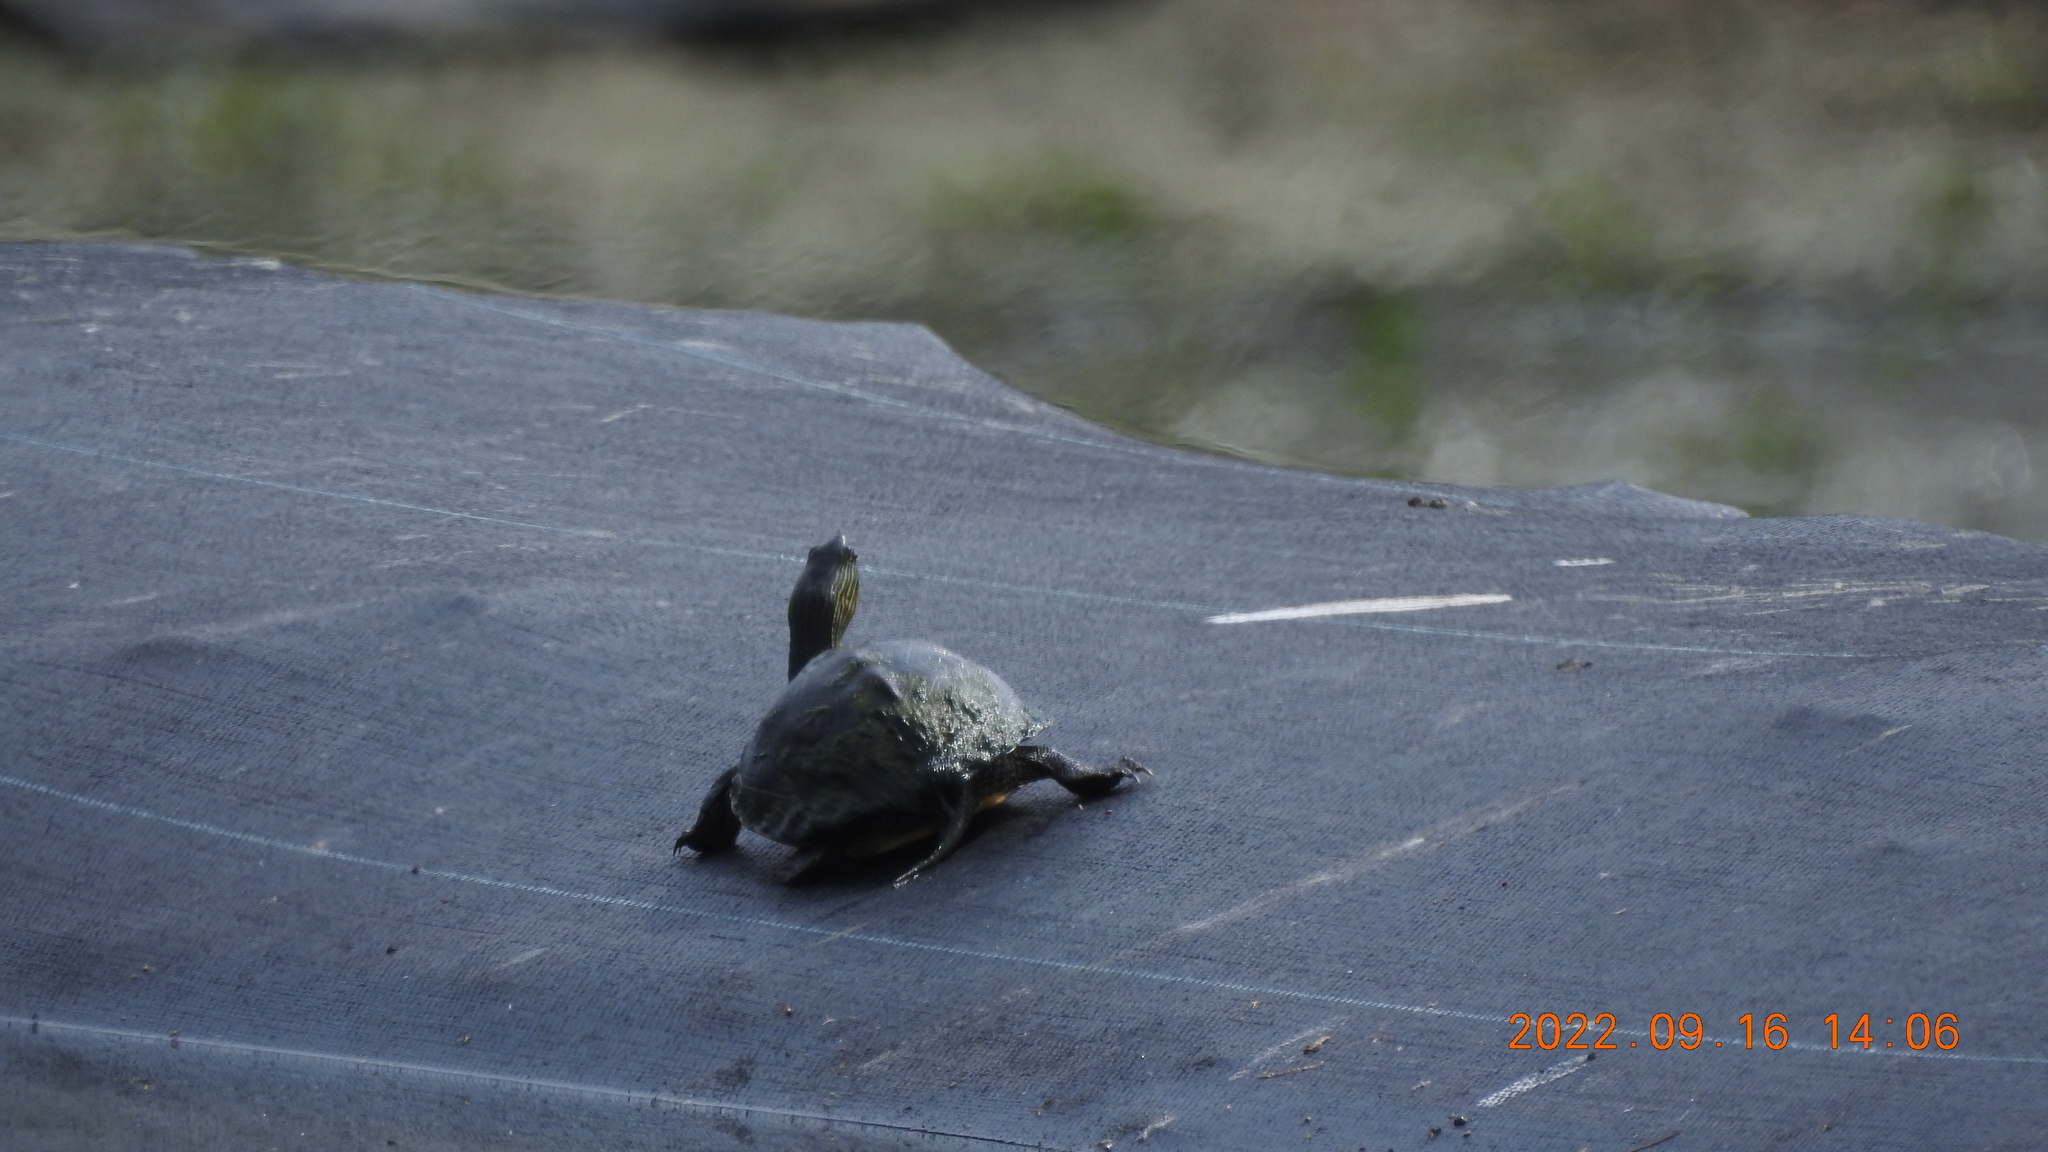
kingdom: Animalia
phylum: Chordata
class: Testudines
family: Geoemydidae
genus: Mauremys
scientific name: Mauremys sinensis
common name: Chinese stripe-necked turtle
